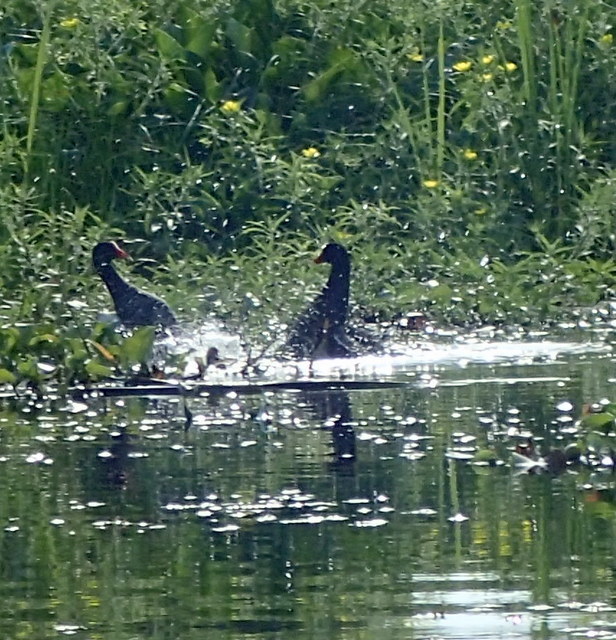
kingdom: Animalia
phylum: Chordata
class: Aves
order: Gruiformes
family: Rallidae
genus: Gallinula
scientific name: Gallinula chloropus
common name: Common moorhen
